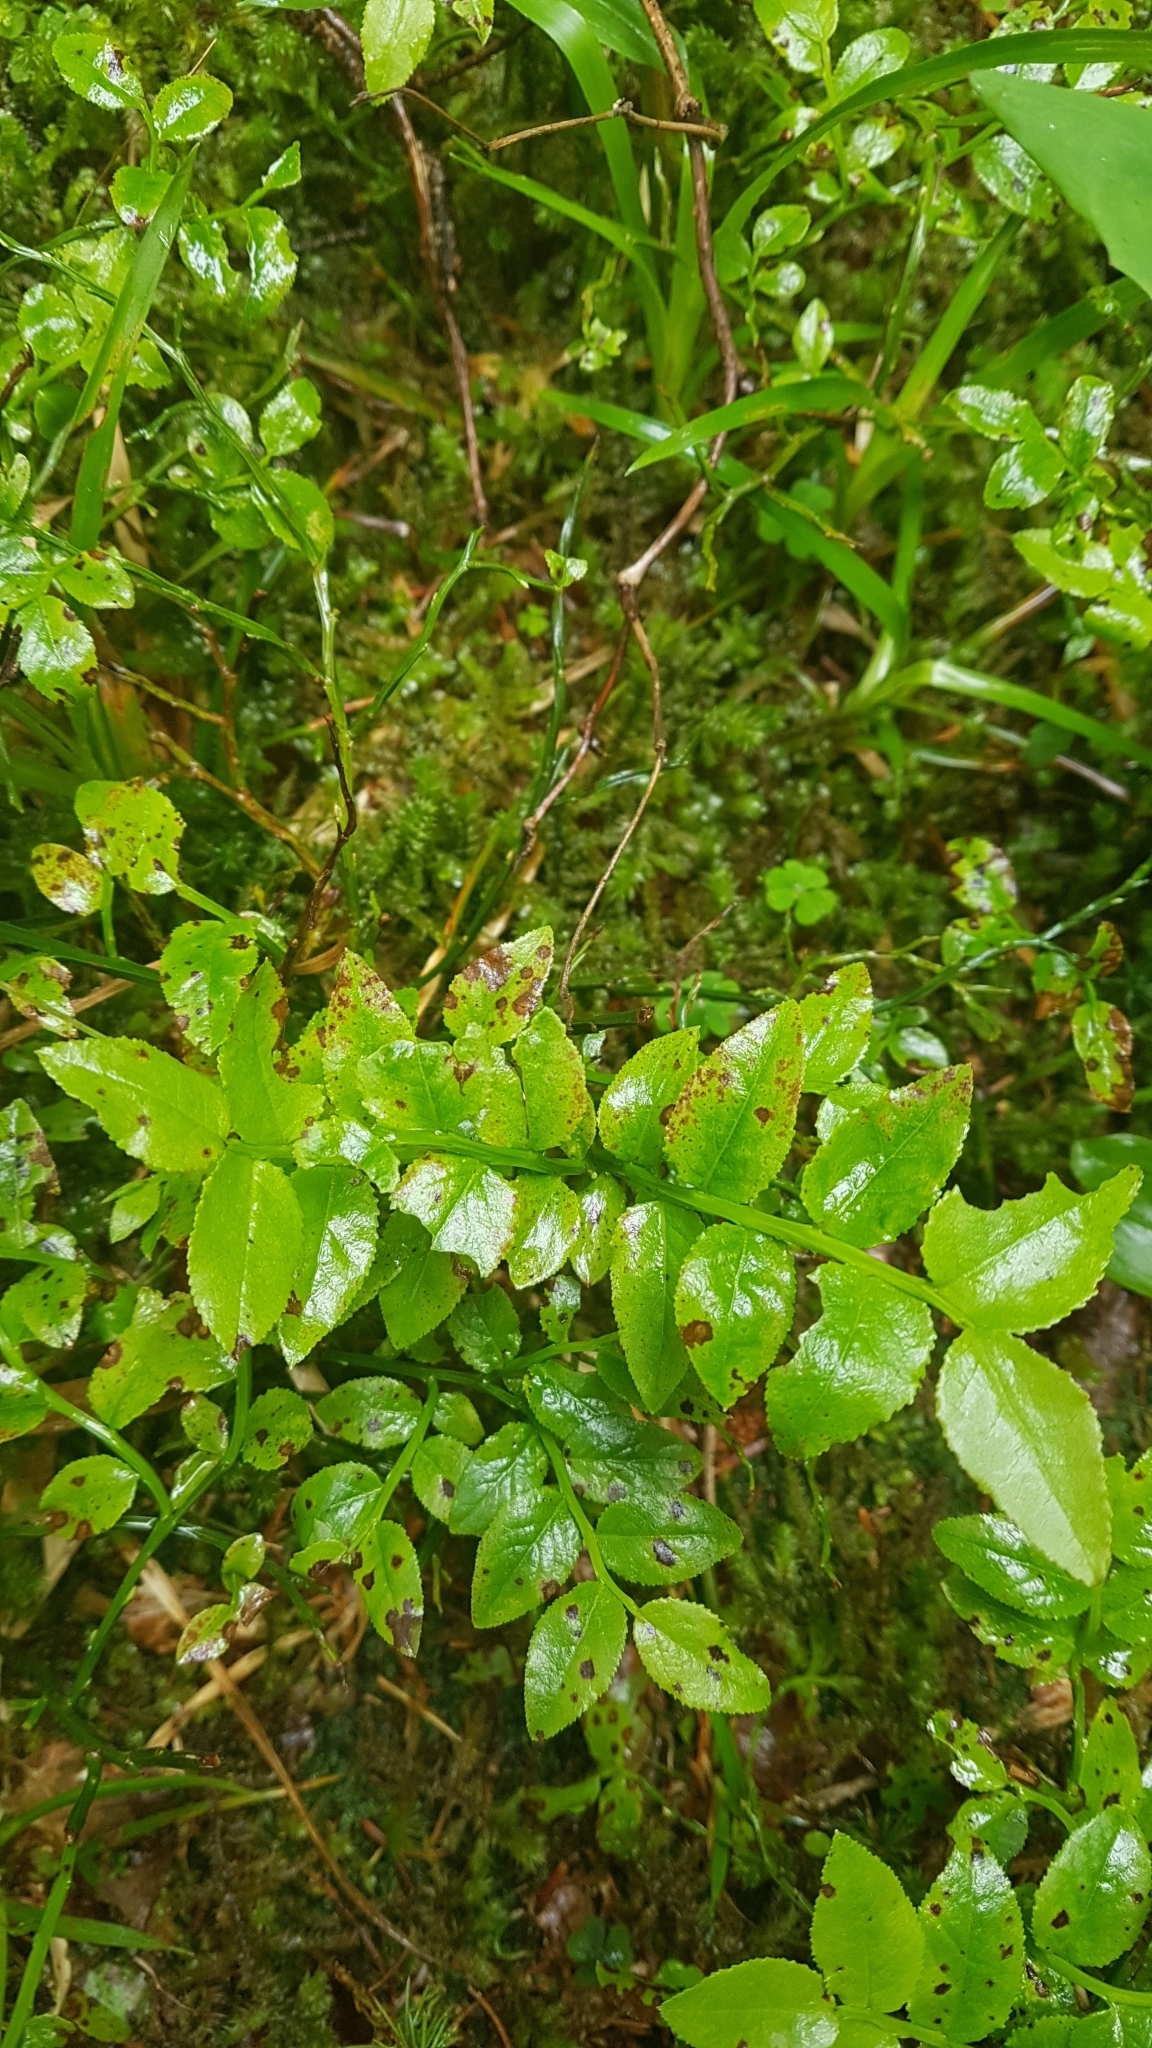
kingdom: Plantae
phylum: Tracheophyta
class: Magnoliopsida
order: Ericales
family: Ericaceae
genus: Vaccinium
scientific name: Vaccinium myrtillus
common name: Bilberry
